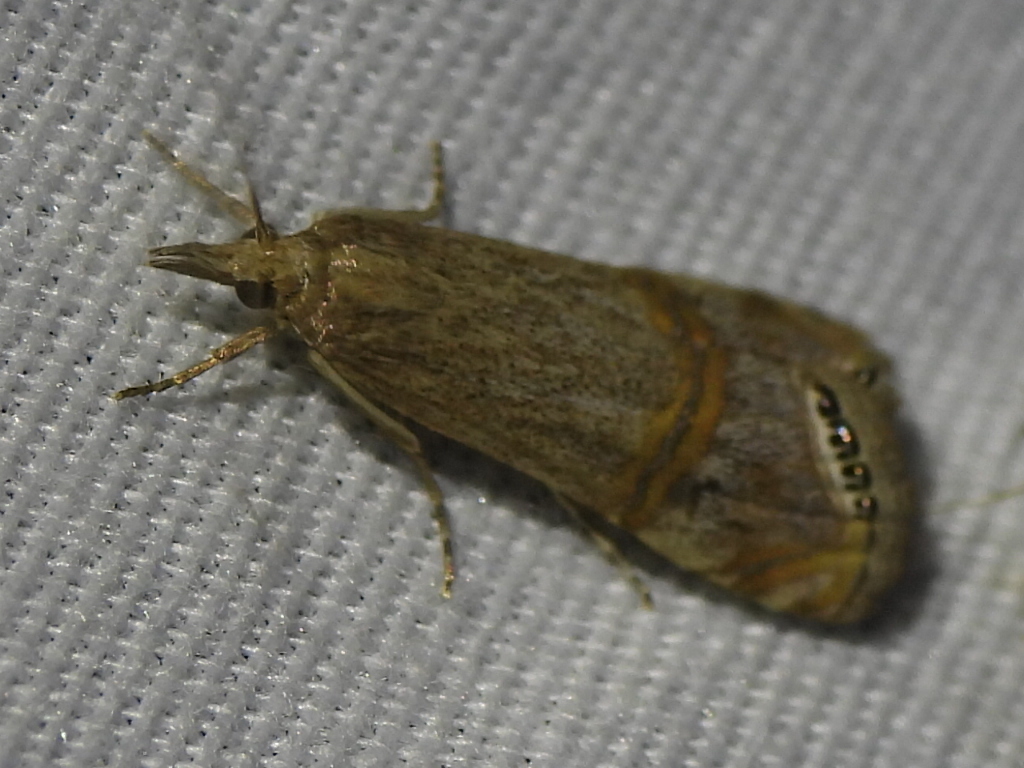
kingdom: Animalia
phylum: Arthropoda
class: Insecta
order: Lepidoptera
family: Crambidae
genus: Euchromius
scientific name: Euchromius ocellea
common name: Necklace veneer moth
